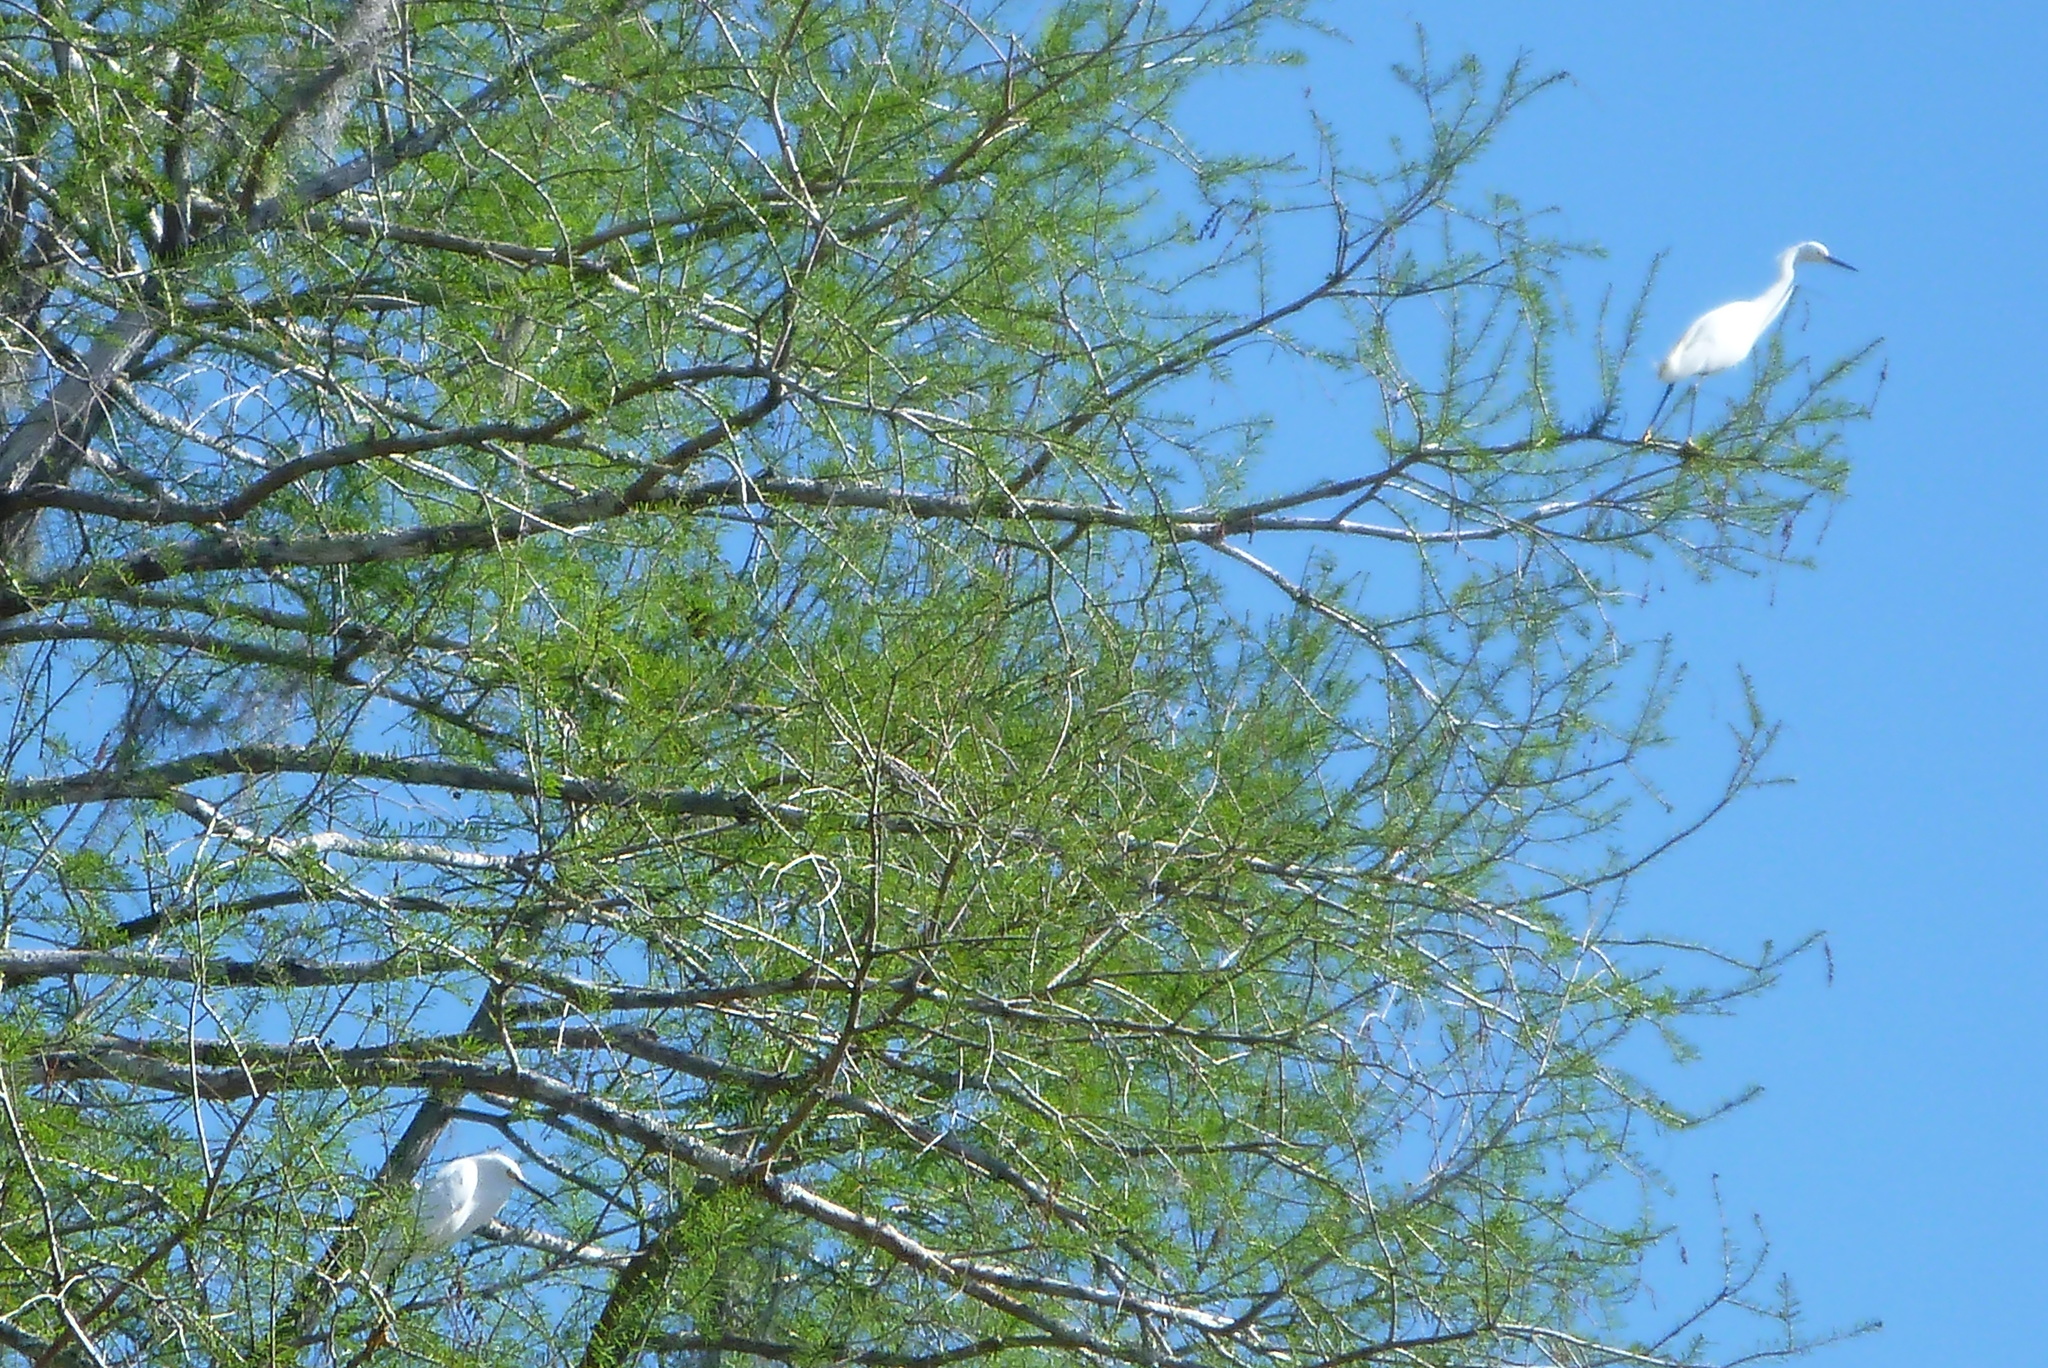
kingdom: Animalia
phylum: Chordata
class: Aves
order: Pelecaniformes
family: Ardeidae
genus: Egretta
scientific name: Egretta thula
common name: Snowy egret
